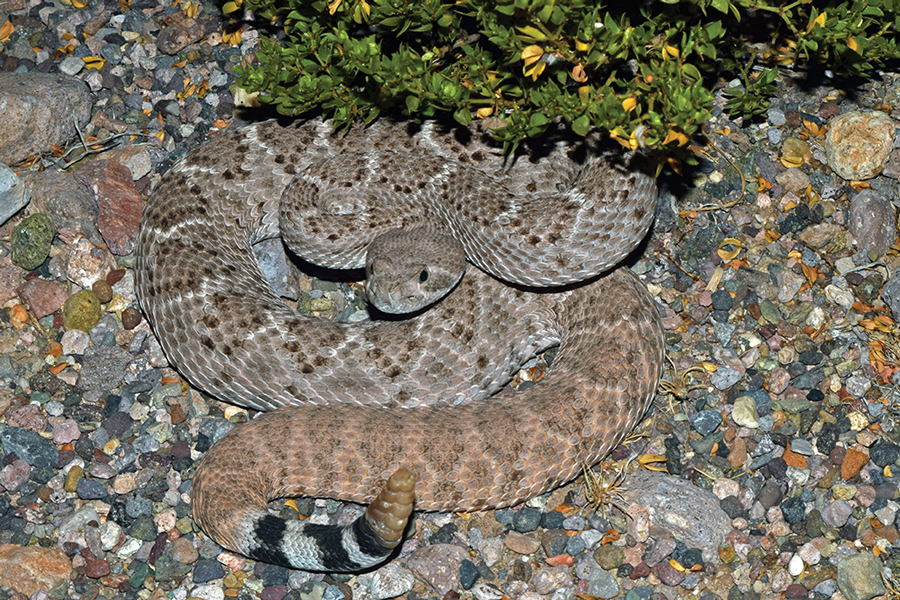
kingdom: Animalia
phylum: Chordata
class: Squamata
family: Viperidae
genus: Crotalus
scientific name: Crotalus atrox
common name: Western diamond-backed rattlesnake
